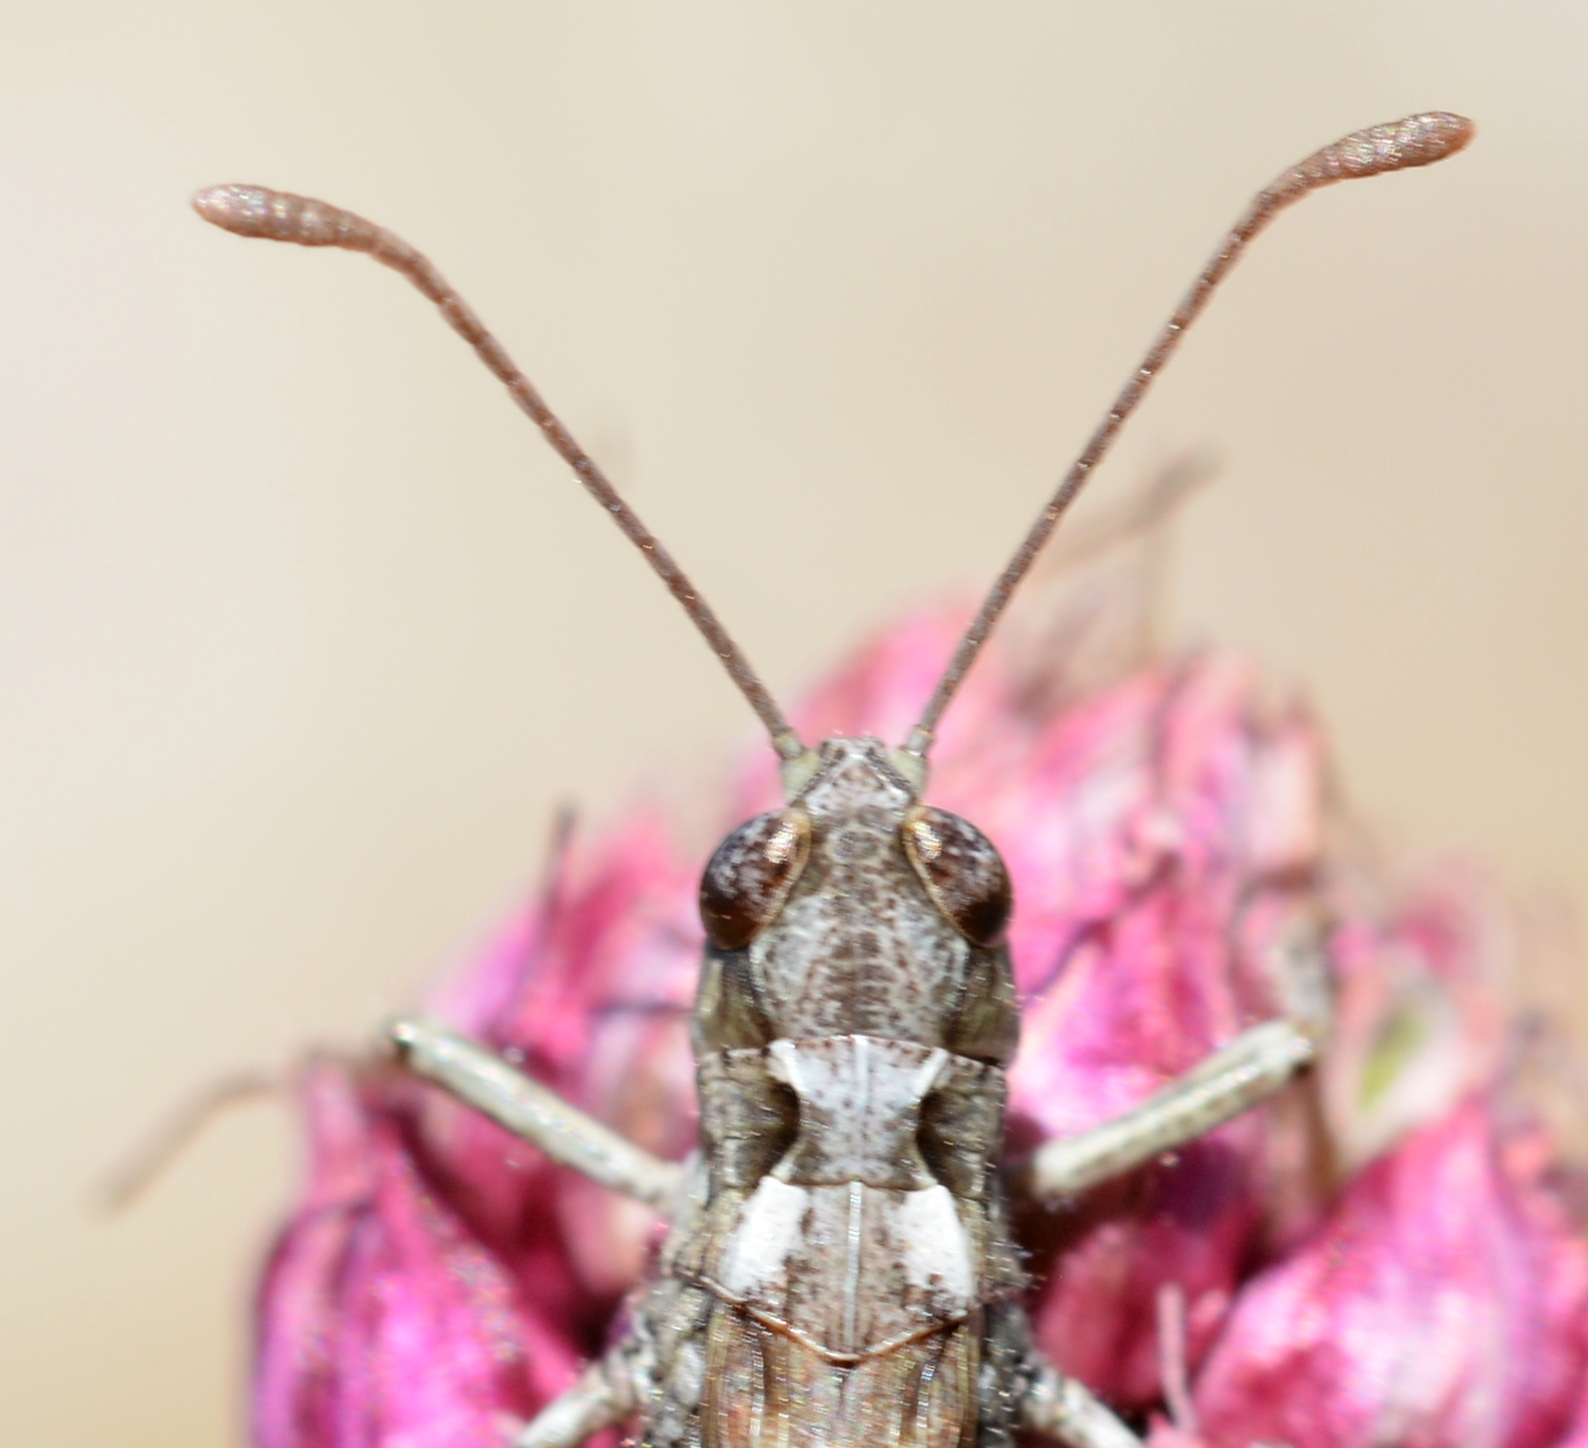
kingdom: Animalia
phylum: Arthropoda
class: Insecta
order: Orthoptera
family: Acrididae
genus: Myrmeleotettix
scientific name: Myrmeleotettix maculatus
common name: Mottled grasshopper
